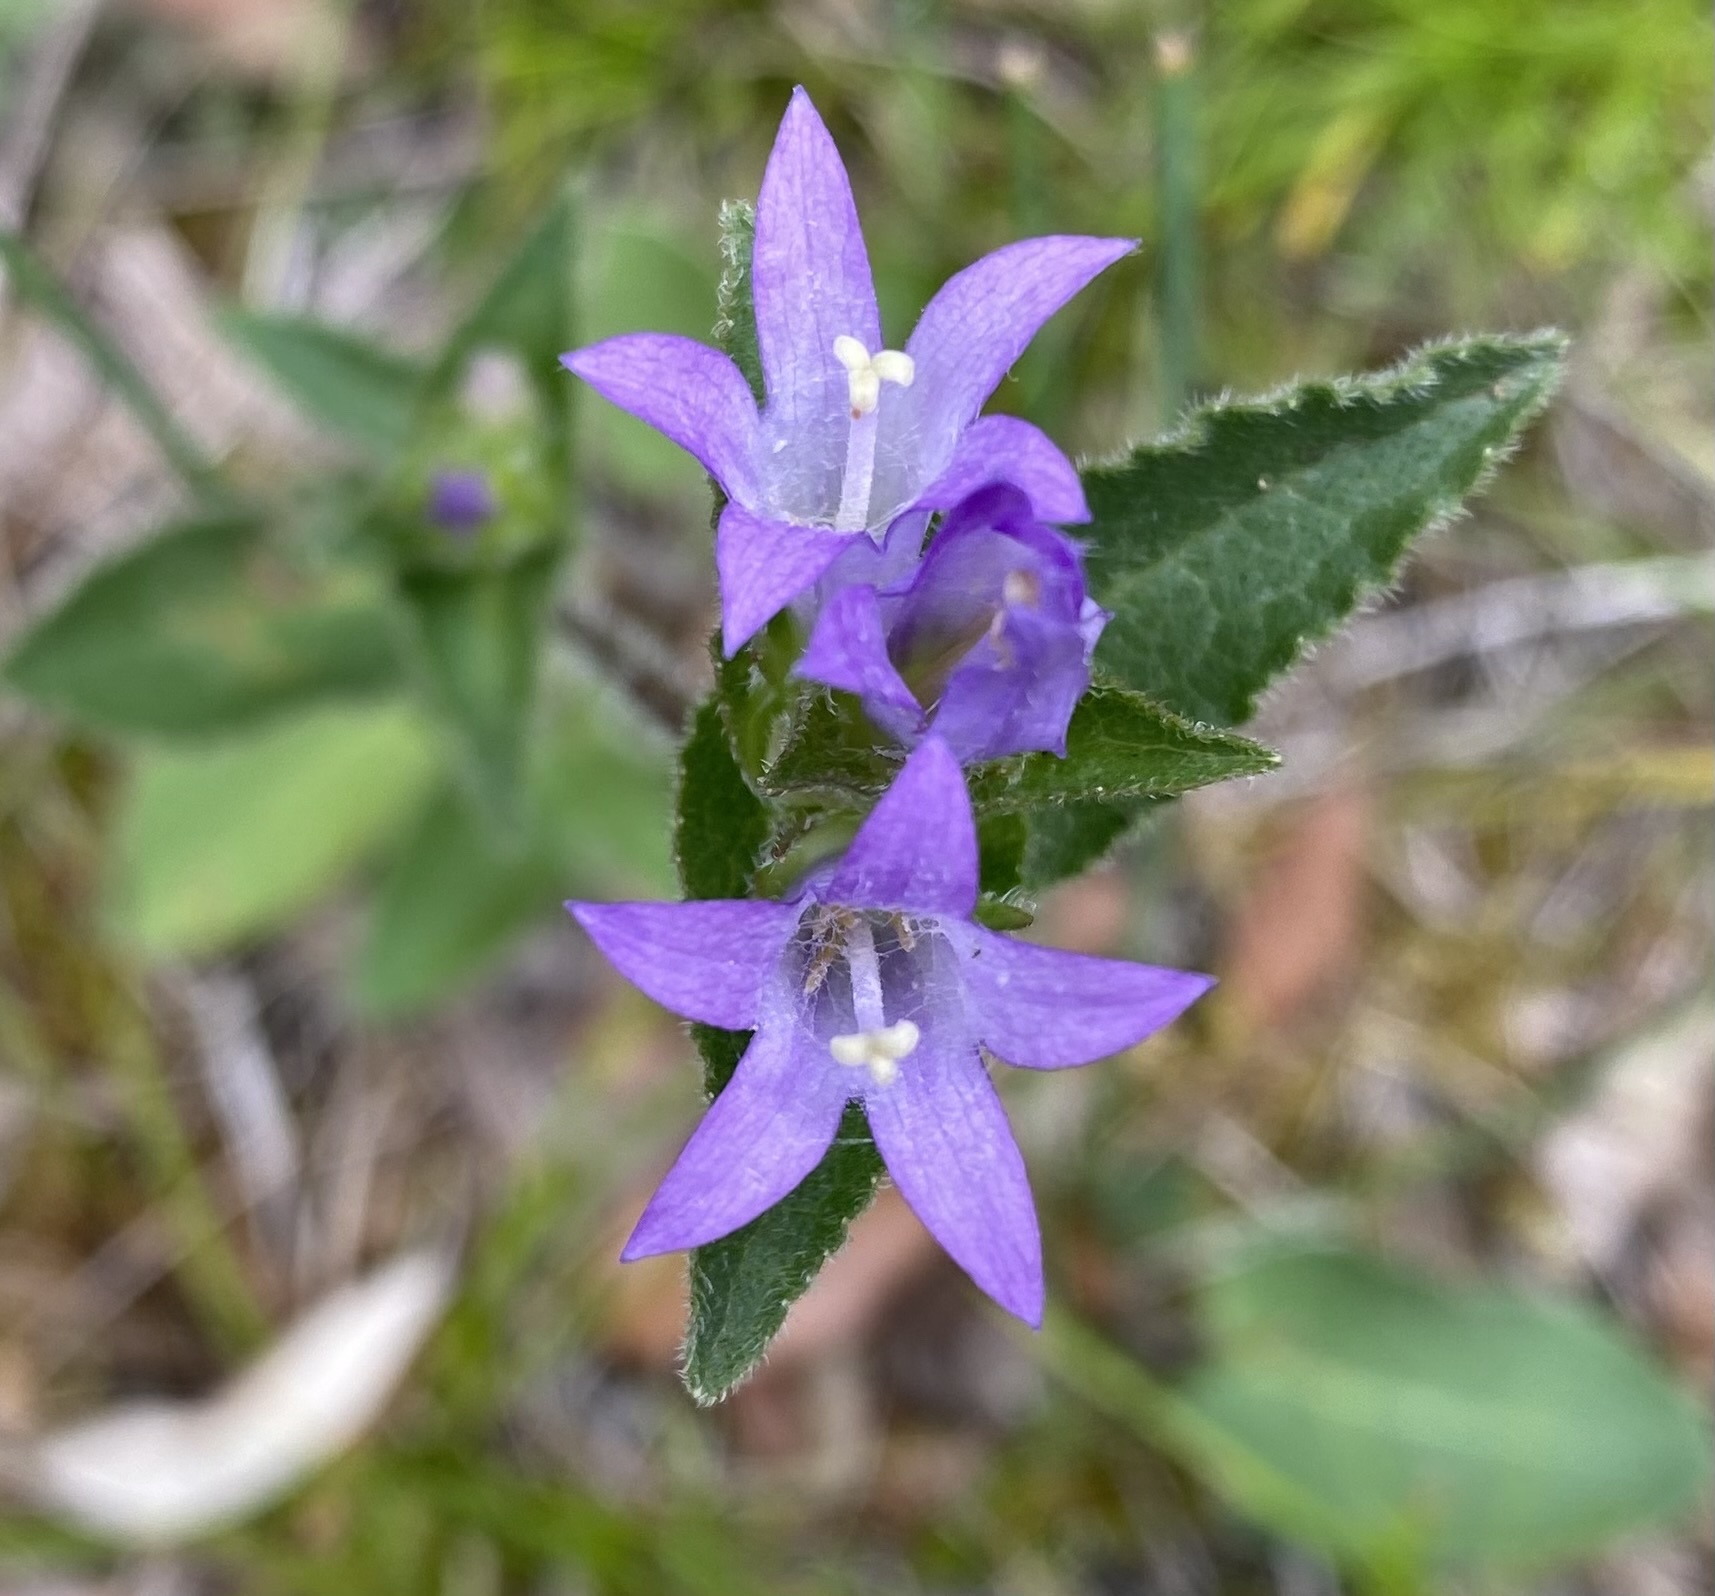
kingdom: Plantae
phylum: Tracheophyta
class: Magnoliopsida
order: Asterales
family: Campanulaceae
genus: Campanula
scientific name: Campanula glomerata
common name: Clustered bellflower
